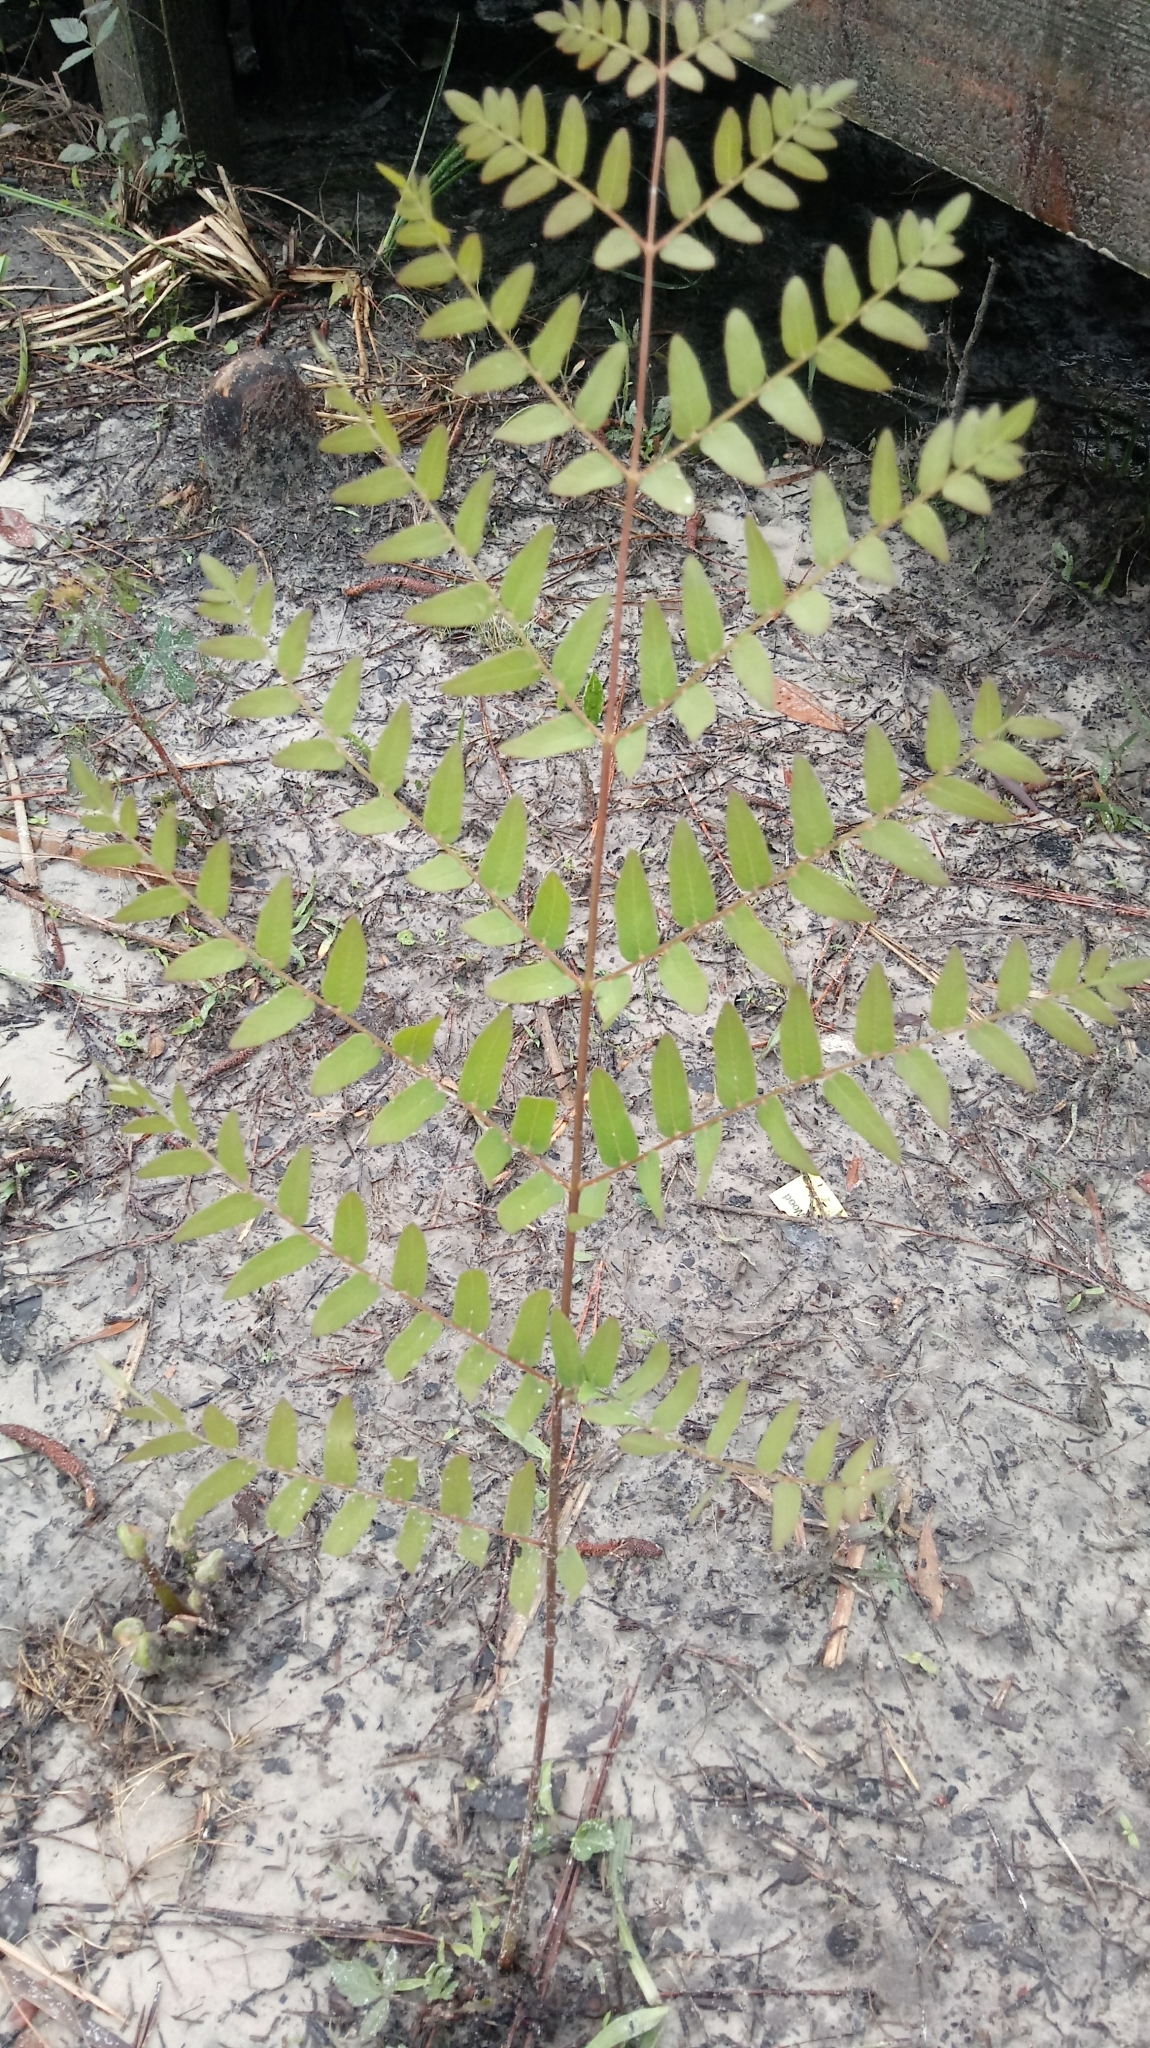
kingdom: Plantae
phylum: Tracheophyta
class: Polypodiopsida
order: Osmundales
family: Osmundaceae
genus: Osmunda
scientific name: Osmunda spectabilis
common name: American royal fern
